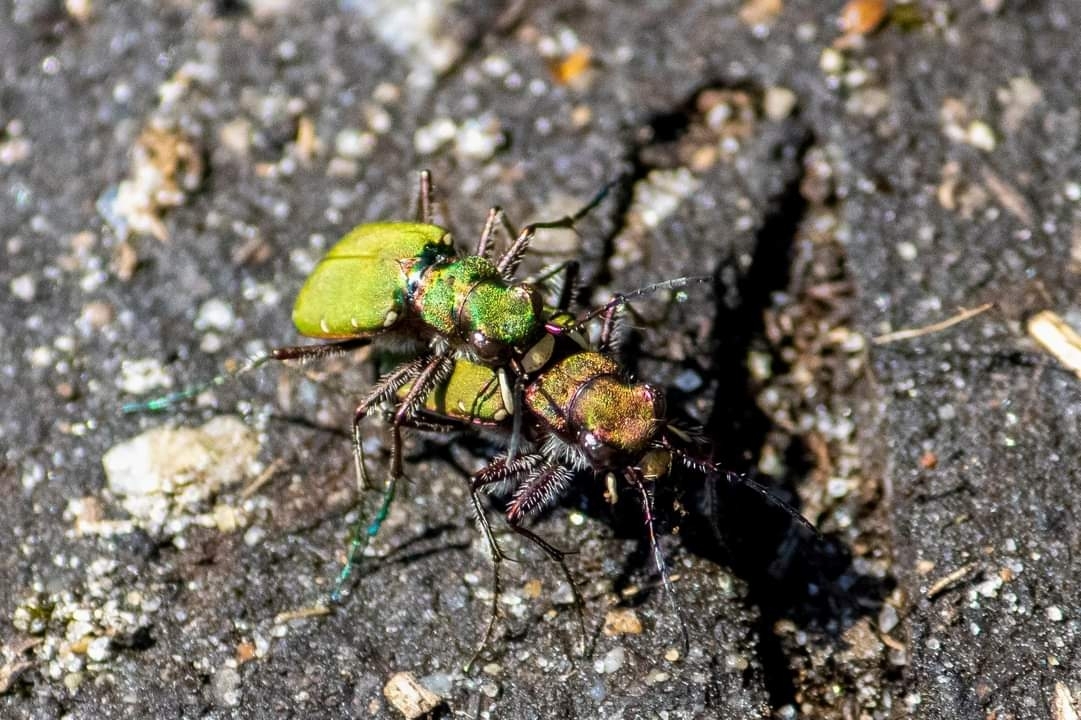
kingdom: Animalia
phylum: Arthropoda
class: Insecta
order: Coleoptera
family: Carabidae
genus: Cicindela
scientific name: Cicindela campestris
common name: Common tiger beetle
